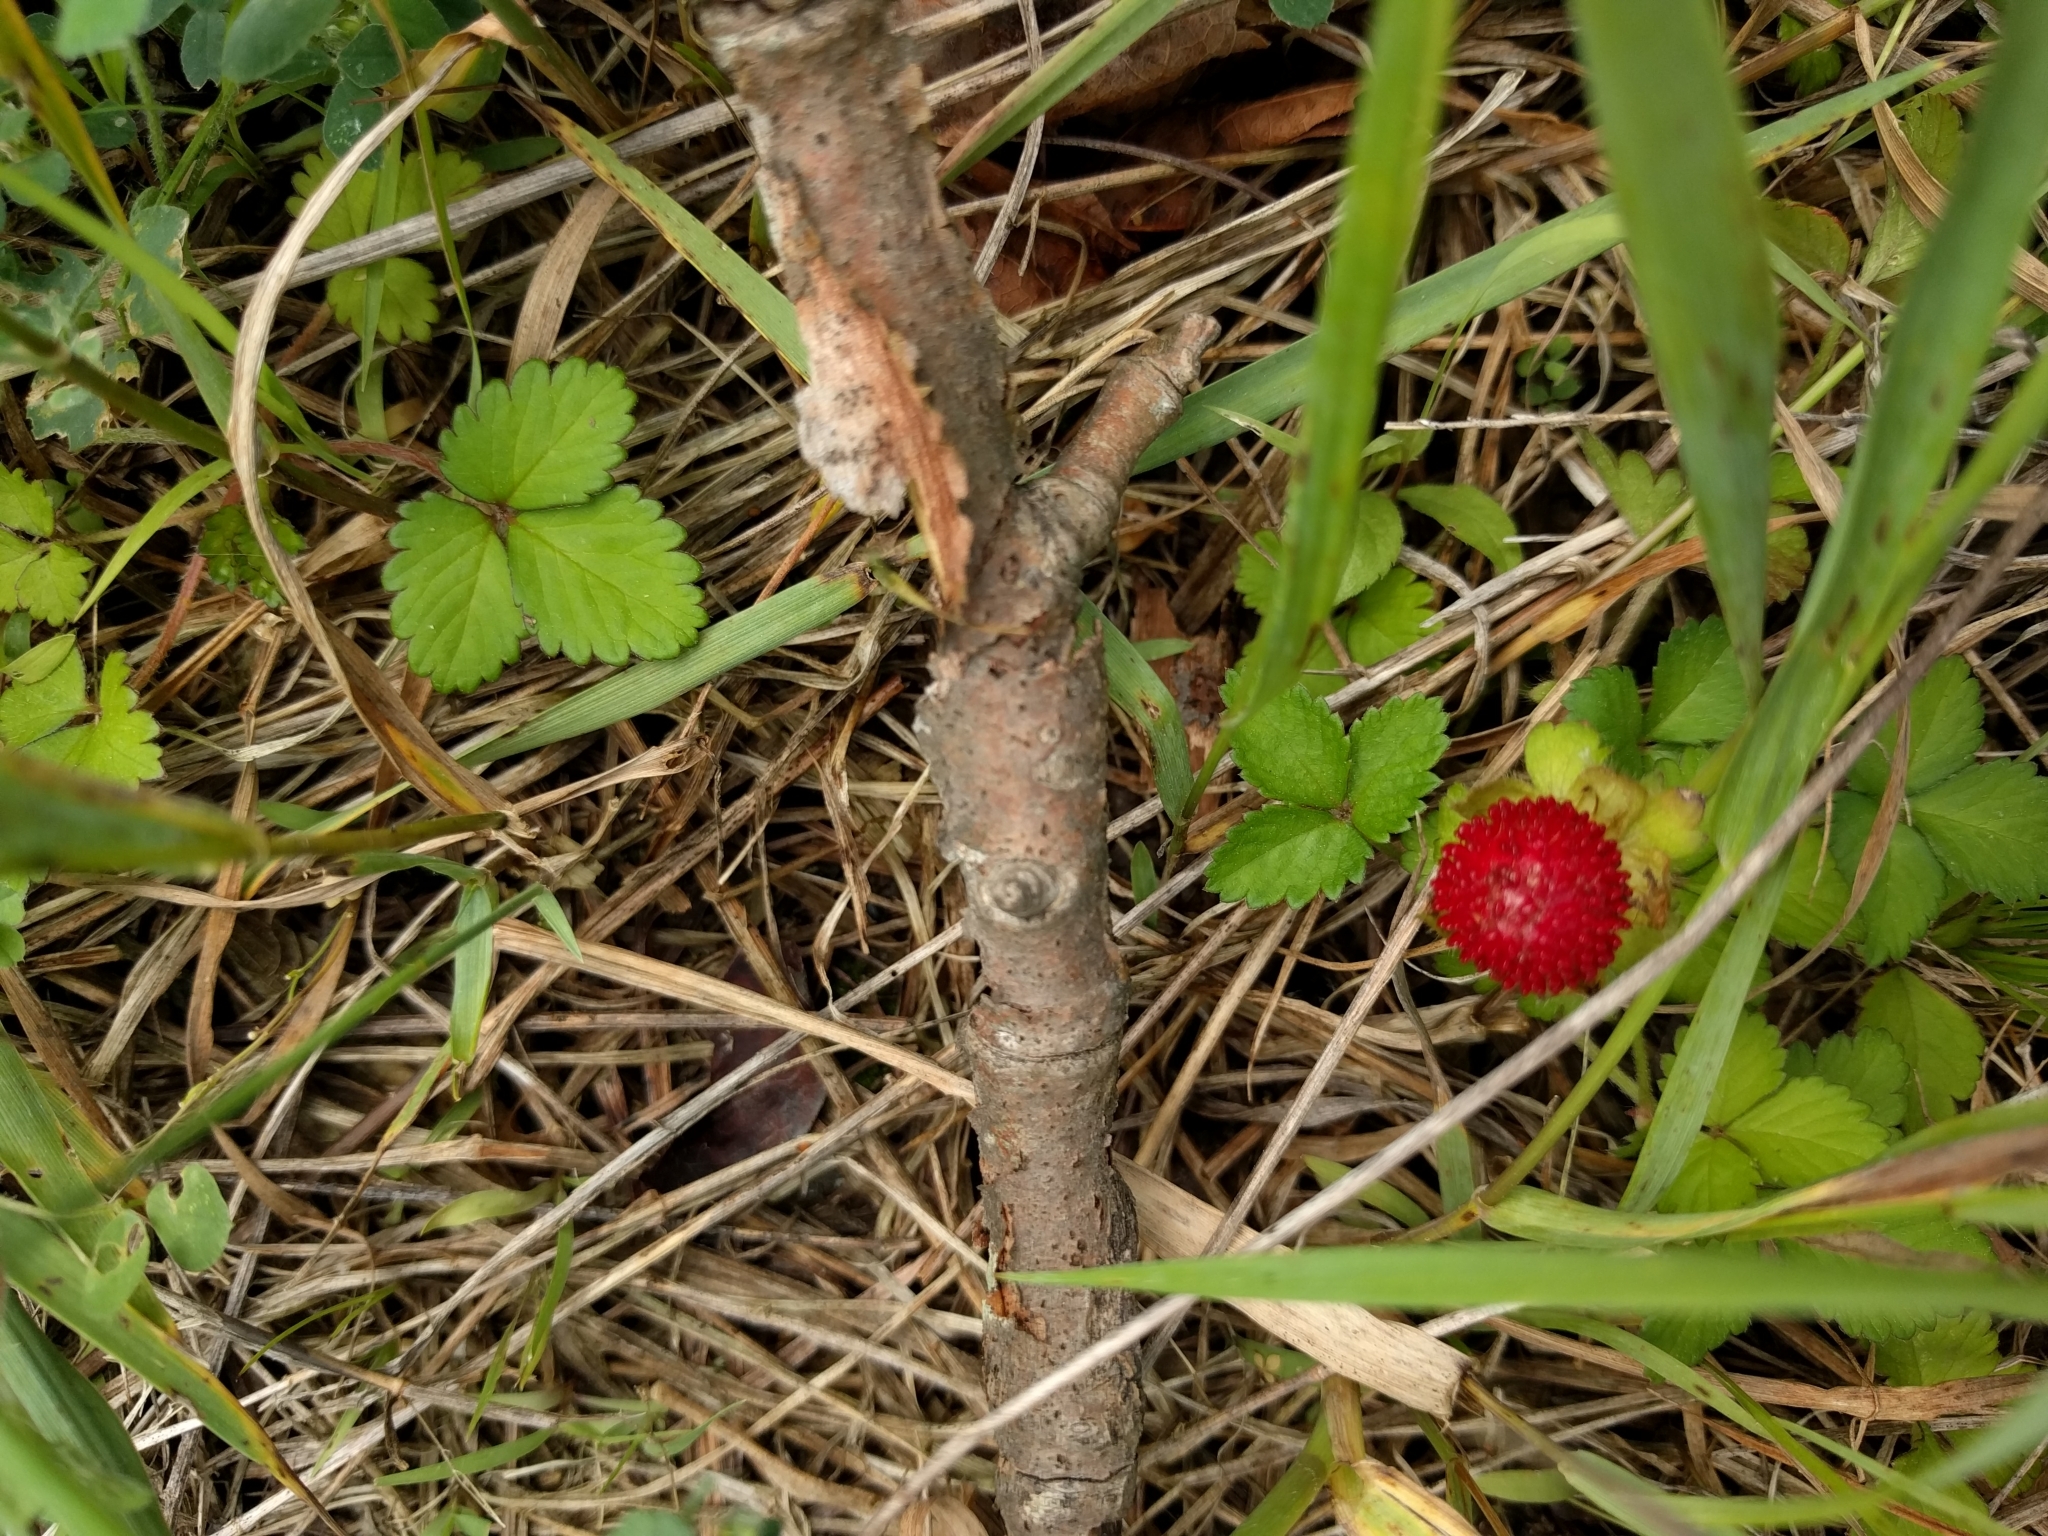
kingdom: Plantae
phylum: Tracheophyta
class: Magnoliopsida
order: Rosales
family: Rosaceae
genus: Potentilla
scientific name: Potentilla indica
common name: Yellow-flowered strawberry
